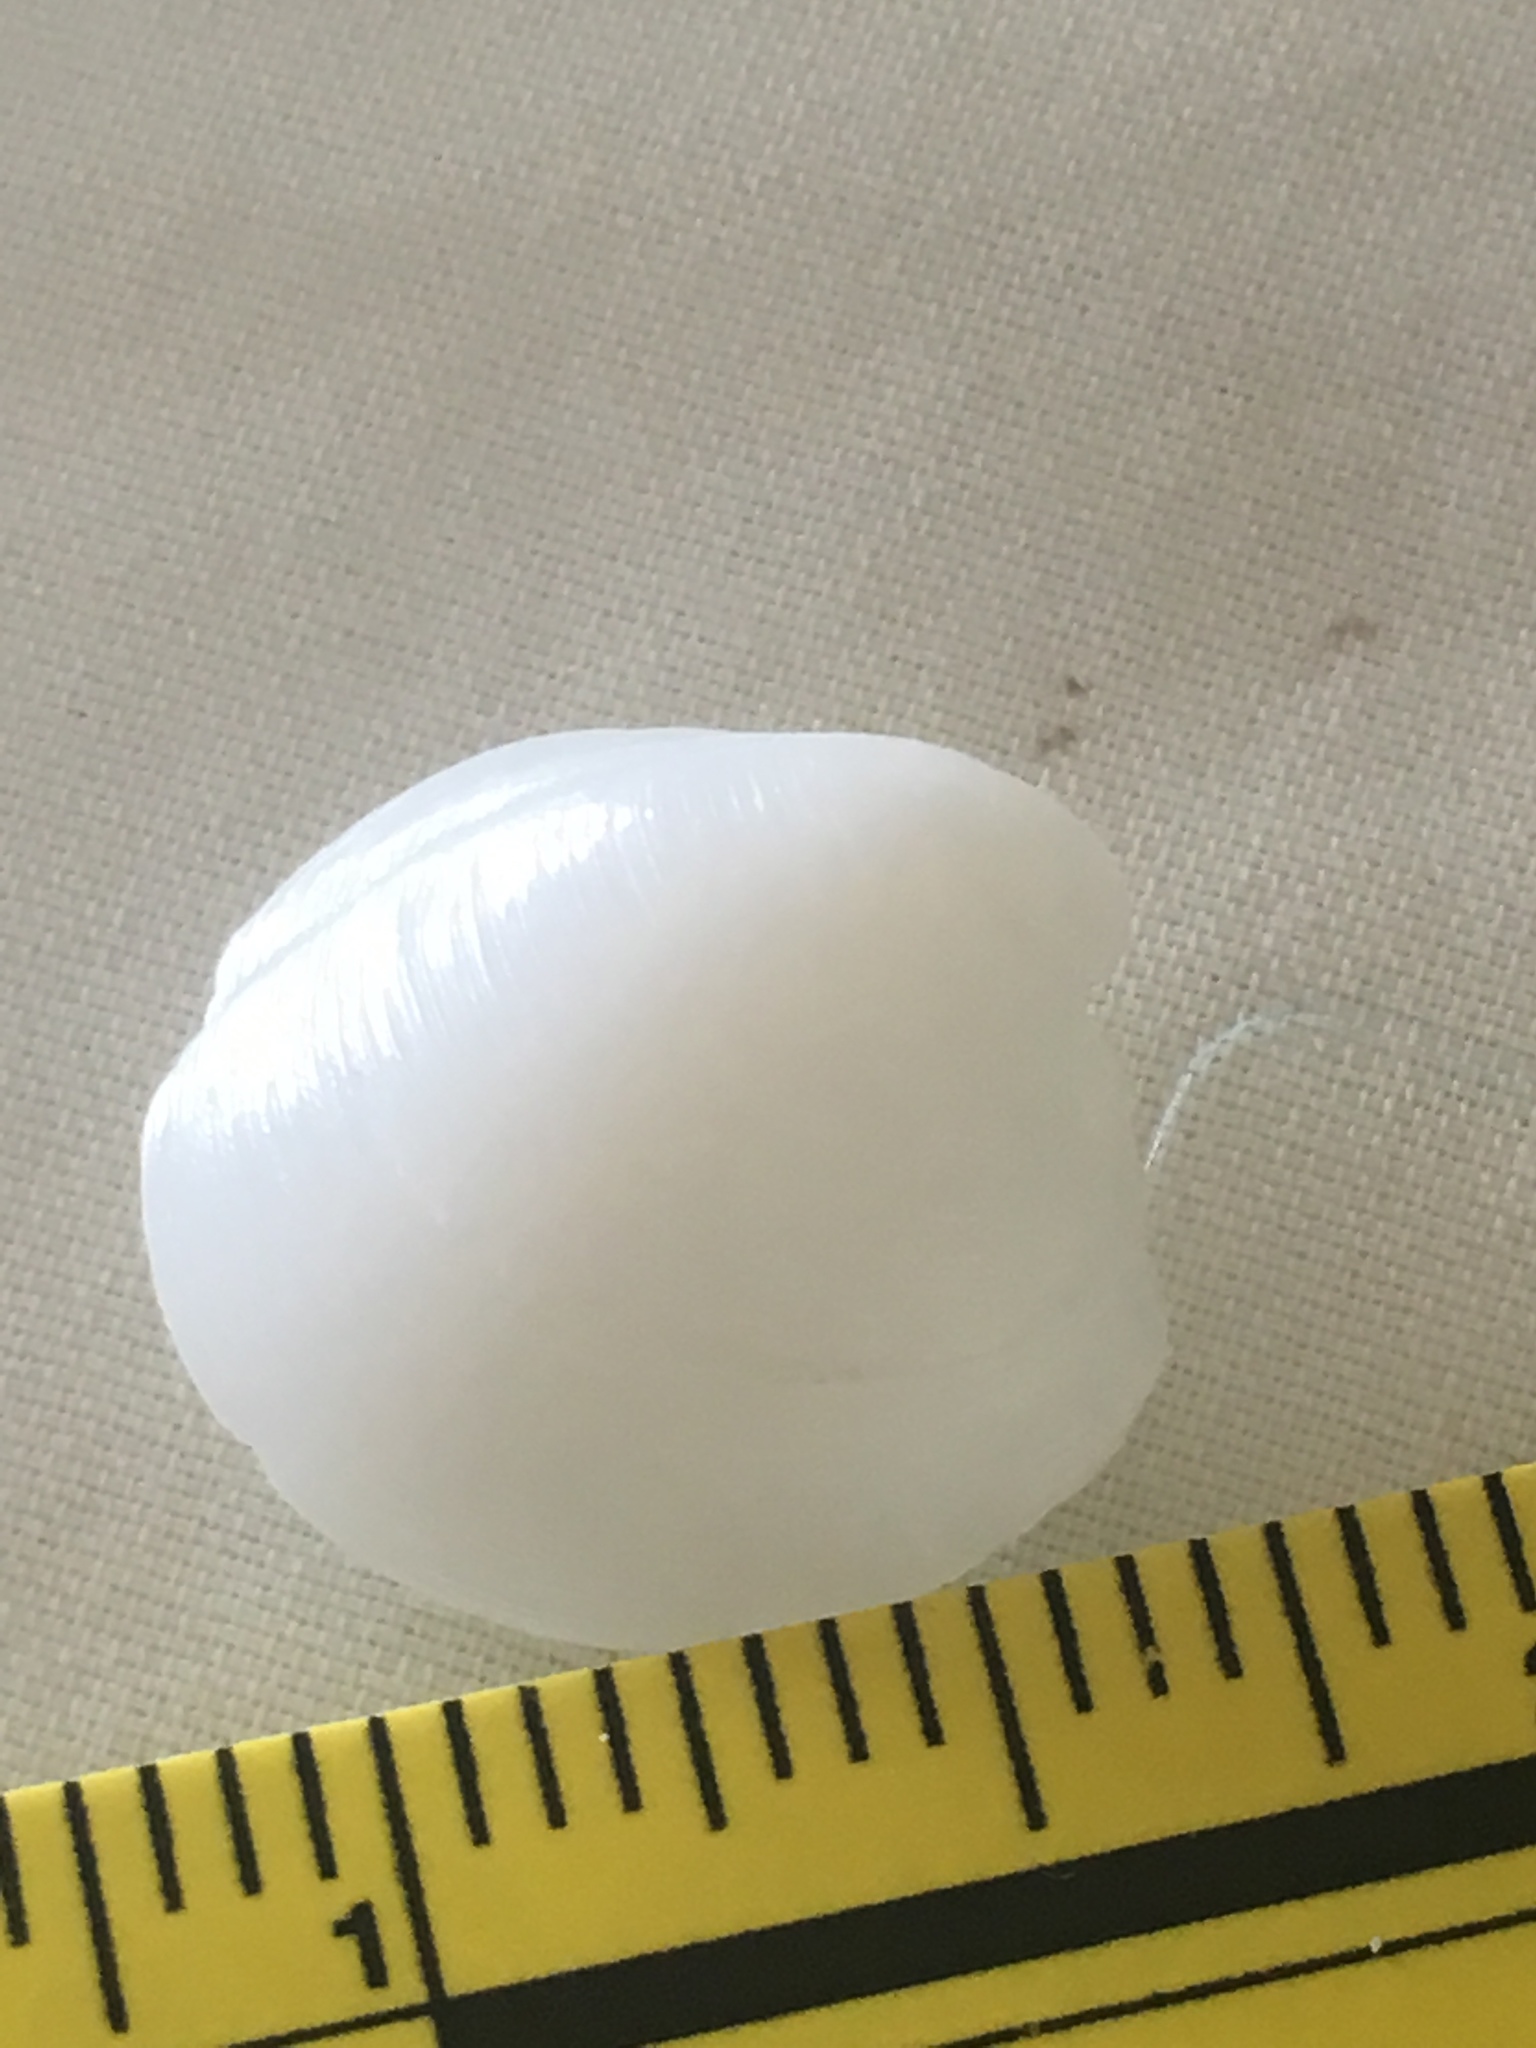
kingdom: Animalia
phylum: Mollusca
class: Bivalvia
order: Lucinida
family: Lucinidae
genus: Lucina
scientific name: Lucina pensylvanica
